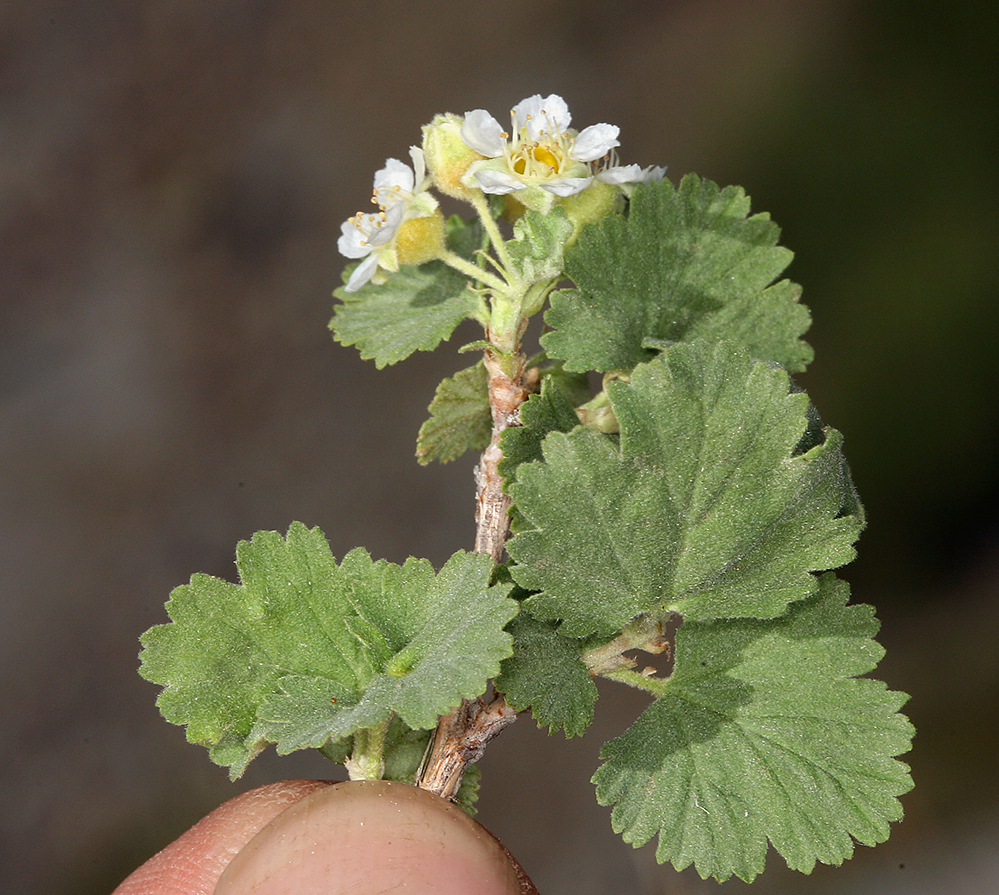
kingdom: Plantae
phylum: Tracheophyta
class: Magnoliopsida
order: Rosales
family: Rosaceae
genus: Physocarpus
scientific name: Physocarpus alternans
